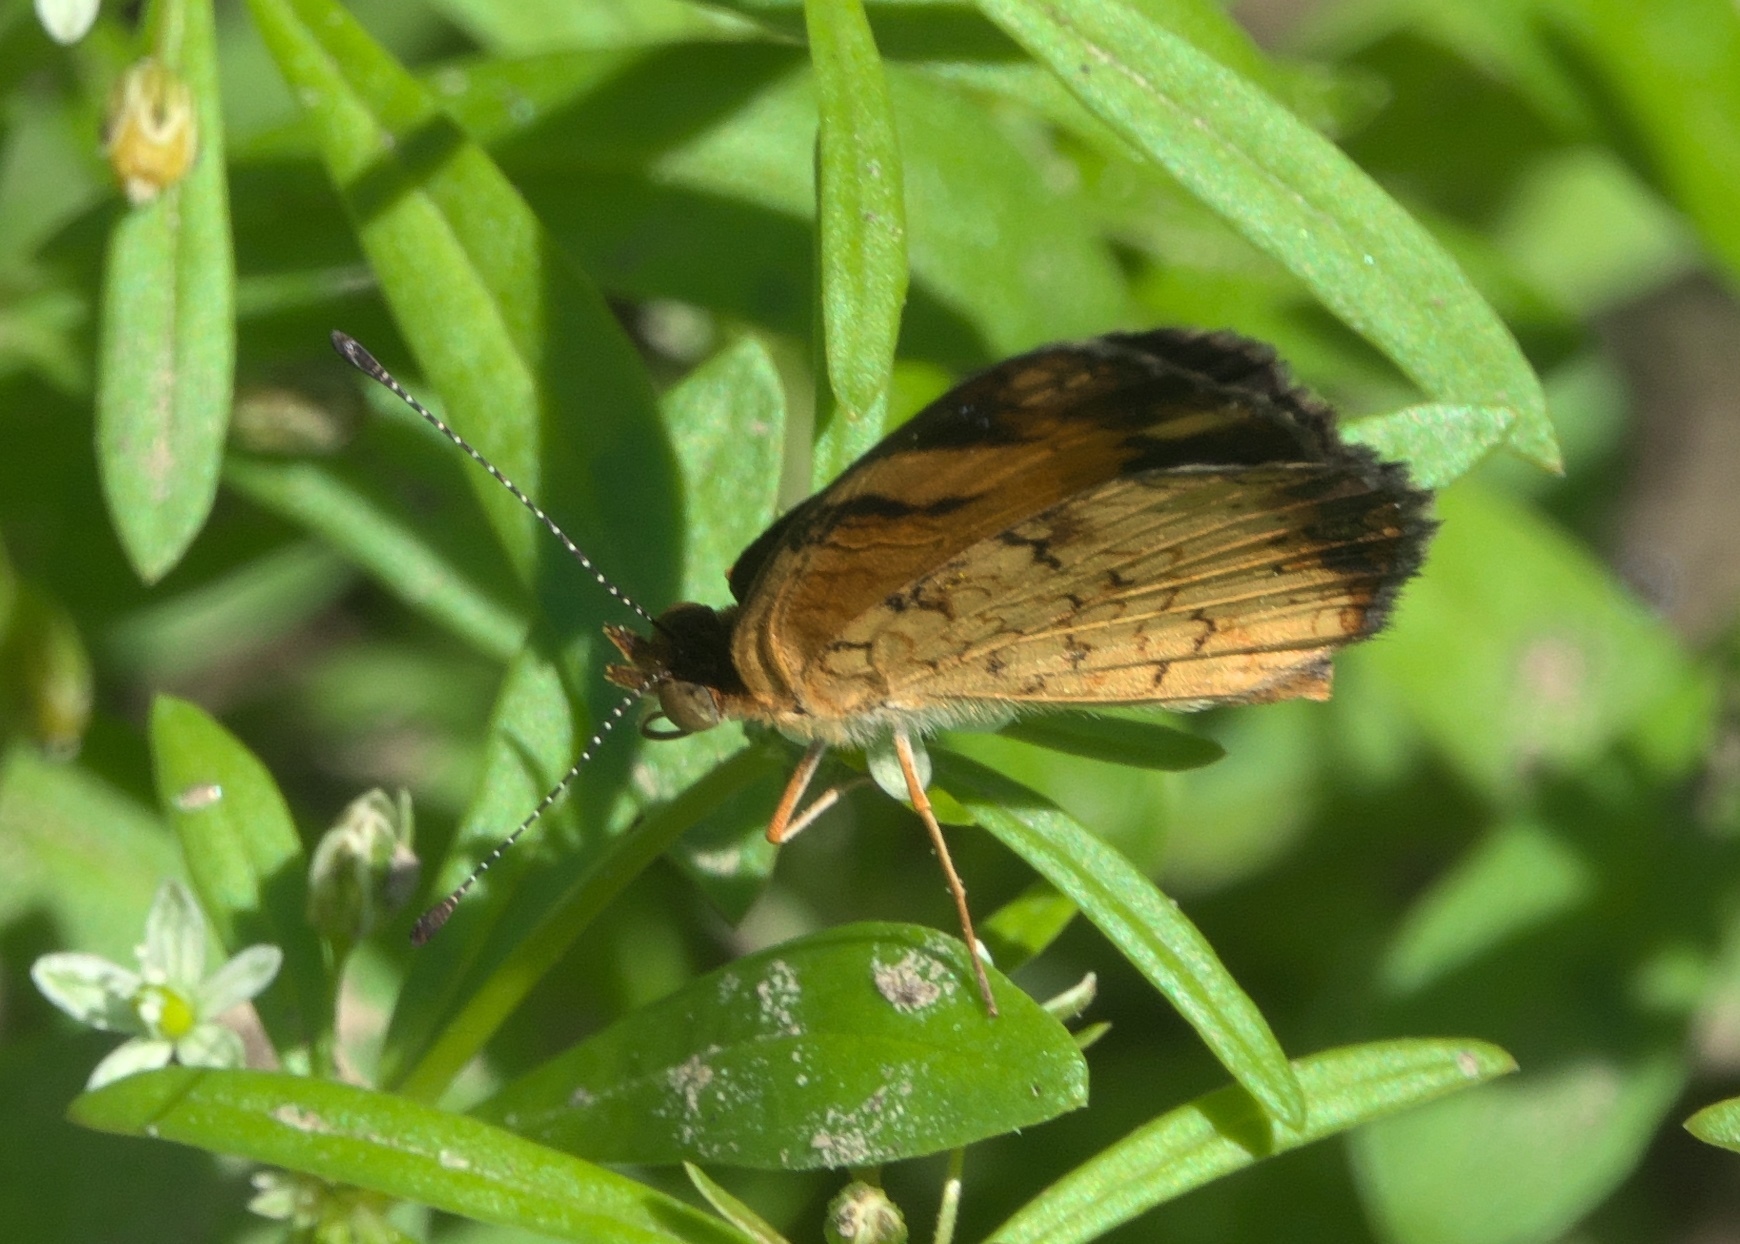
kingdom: Animalia
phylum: Arthropoda
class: Insecta
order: Lepidoptera
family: Nymphalidae
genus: Phyciodes
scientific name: Phyciodes tharos
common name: Pearl crescent
